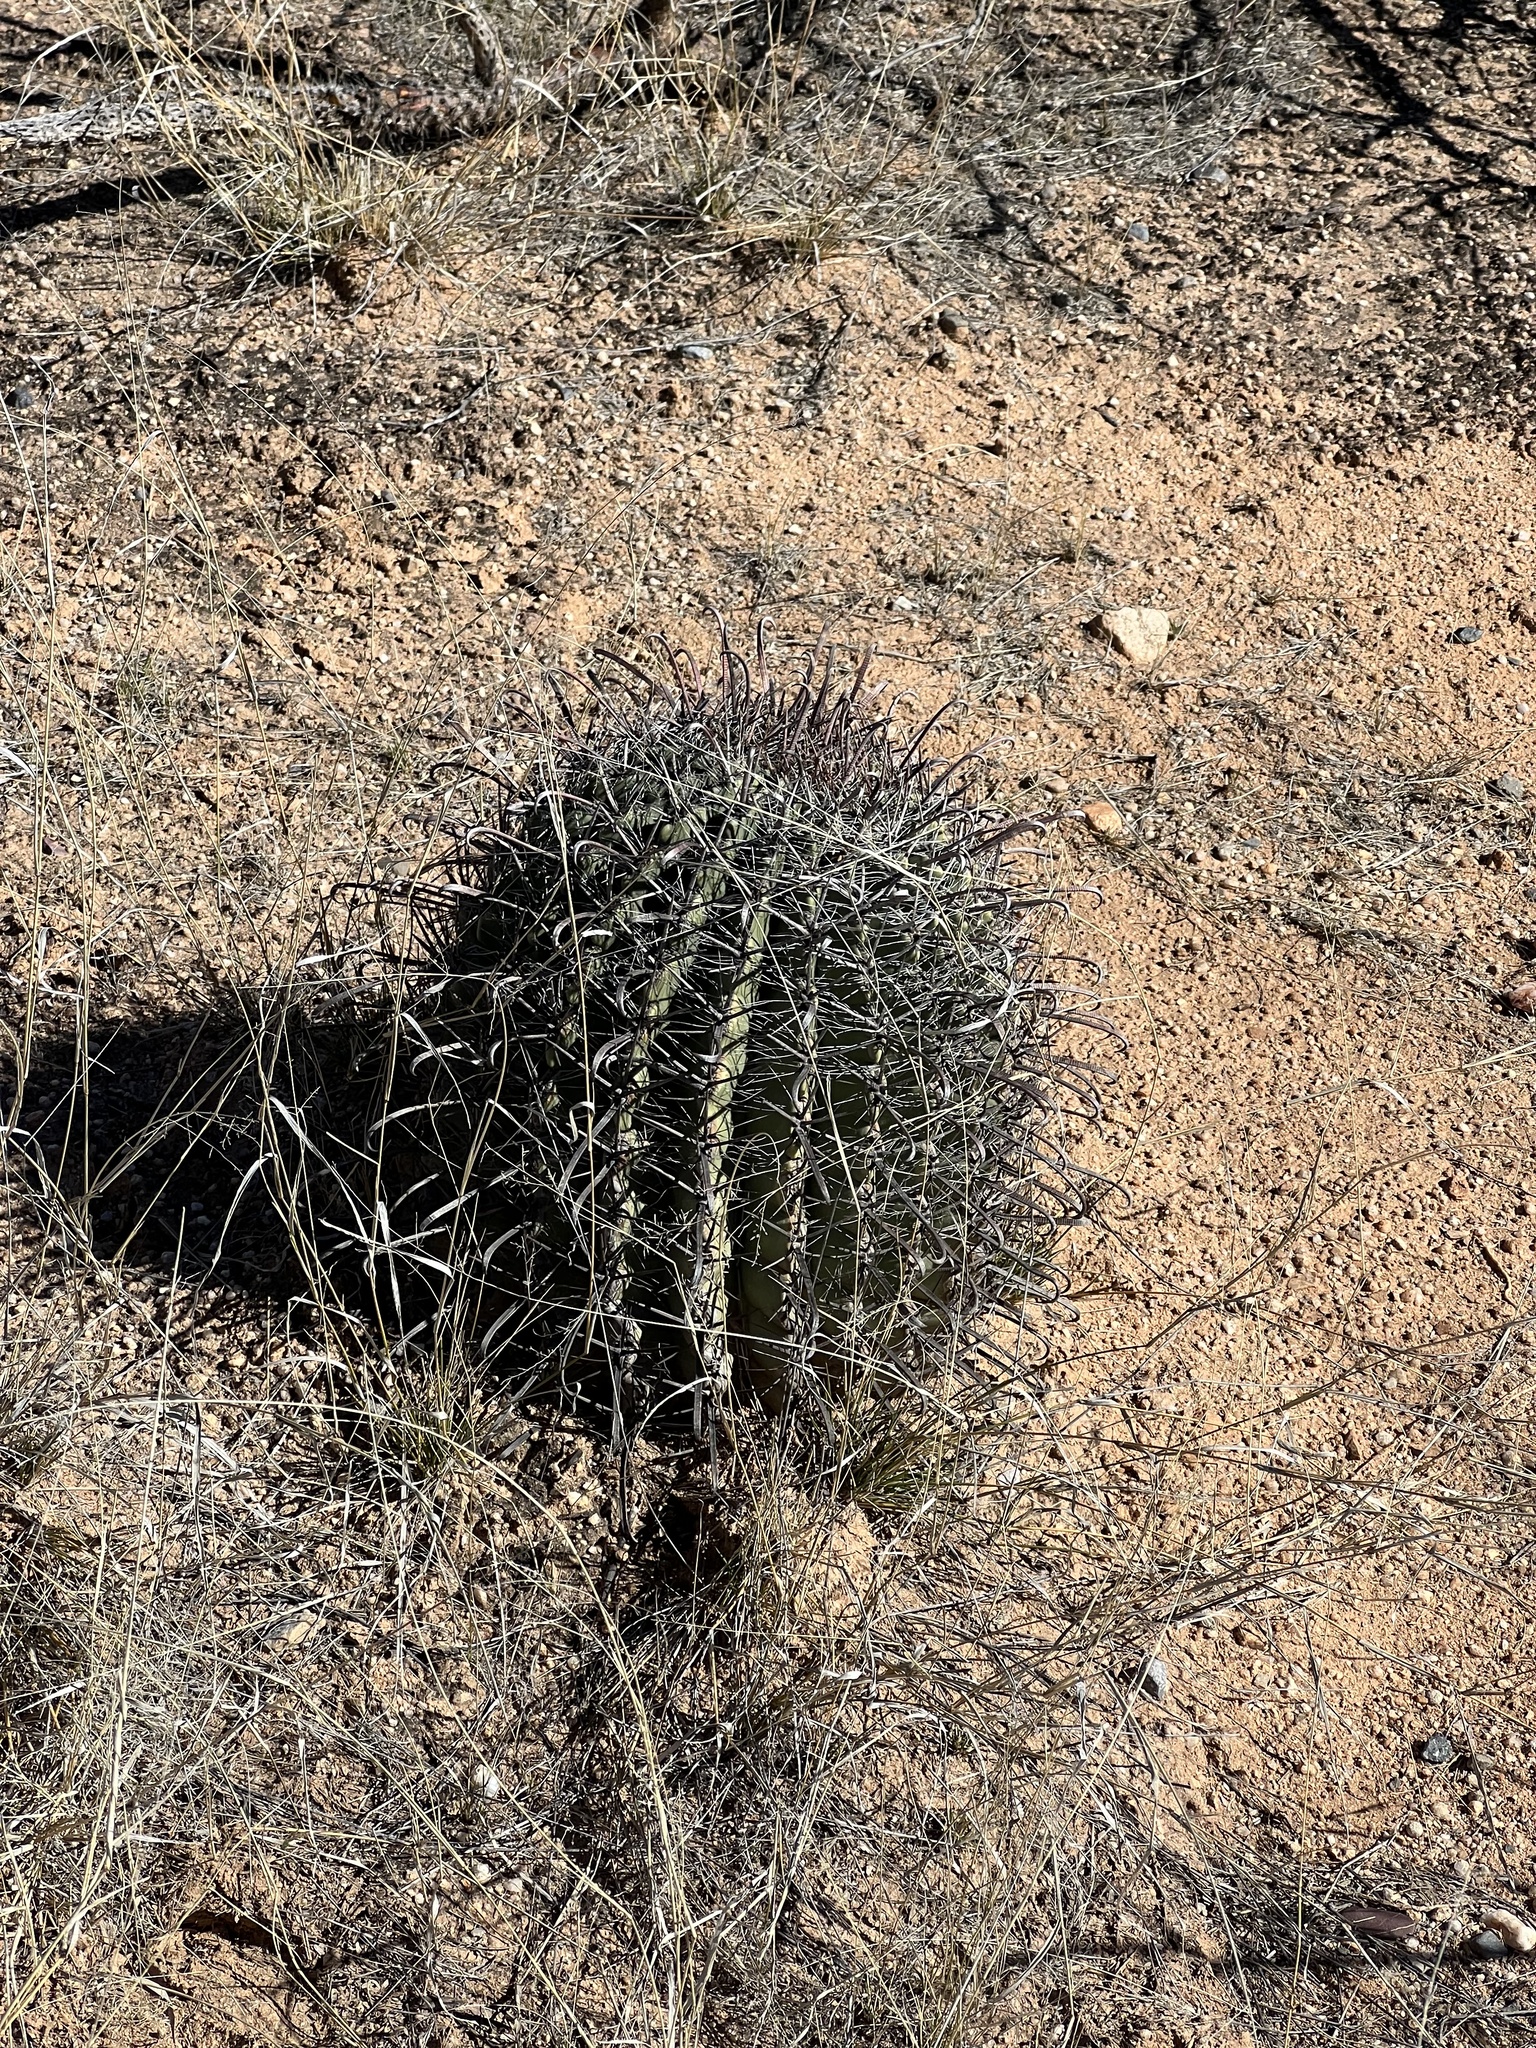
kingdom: Plantae
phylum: Tracheophyta
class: Magnoliopsida
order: Caryophyllales
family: Cactaceae
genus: Ferocactus
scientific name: Ferocactus wislizeni
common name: Candy barrel cactus
